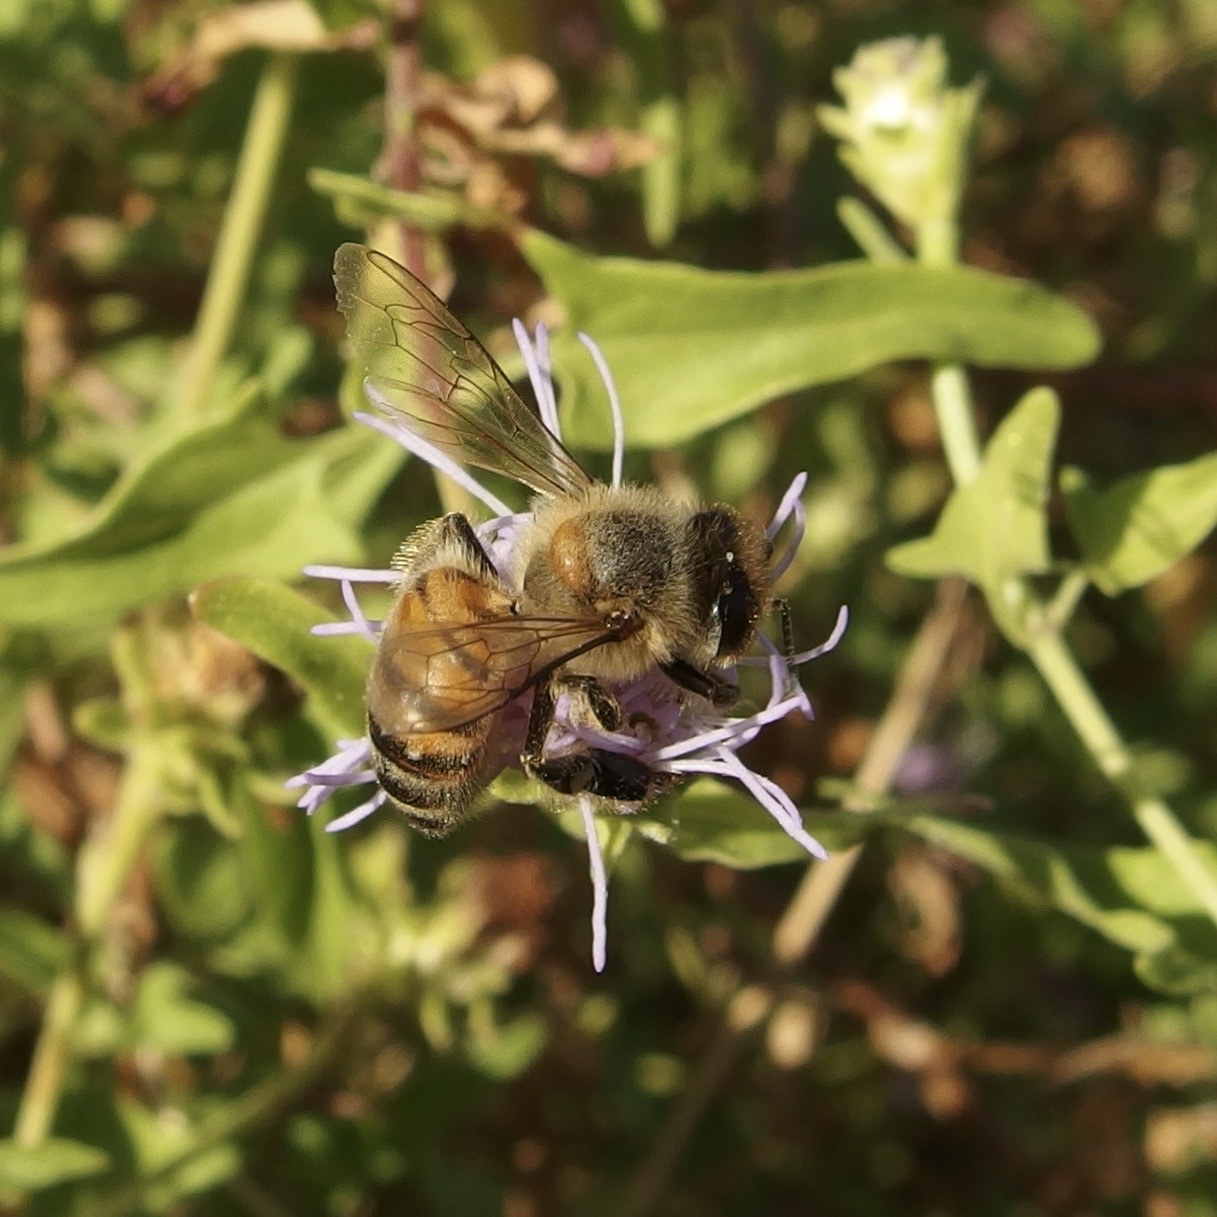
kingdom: Animalia
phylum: Arthropoda
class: Insecta
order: Hymenoptera
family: Apidae
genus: Apis
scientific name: Apis mellifera
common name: Honey bee
